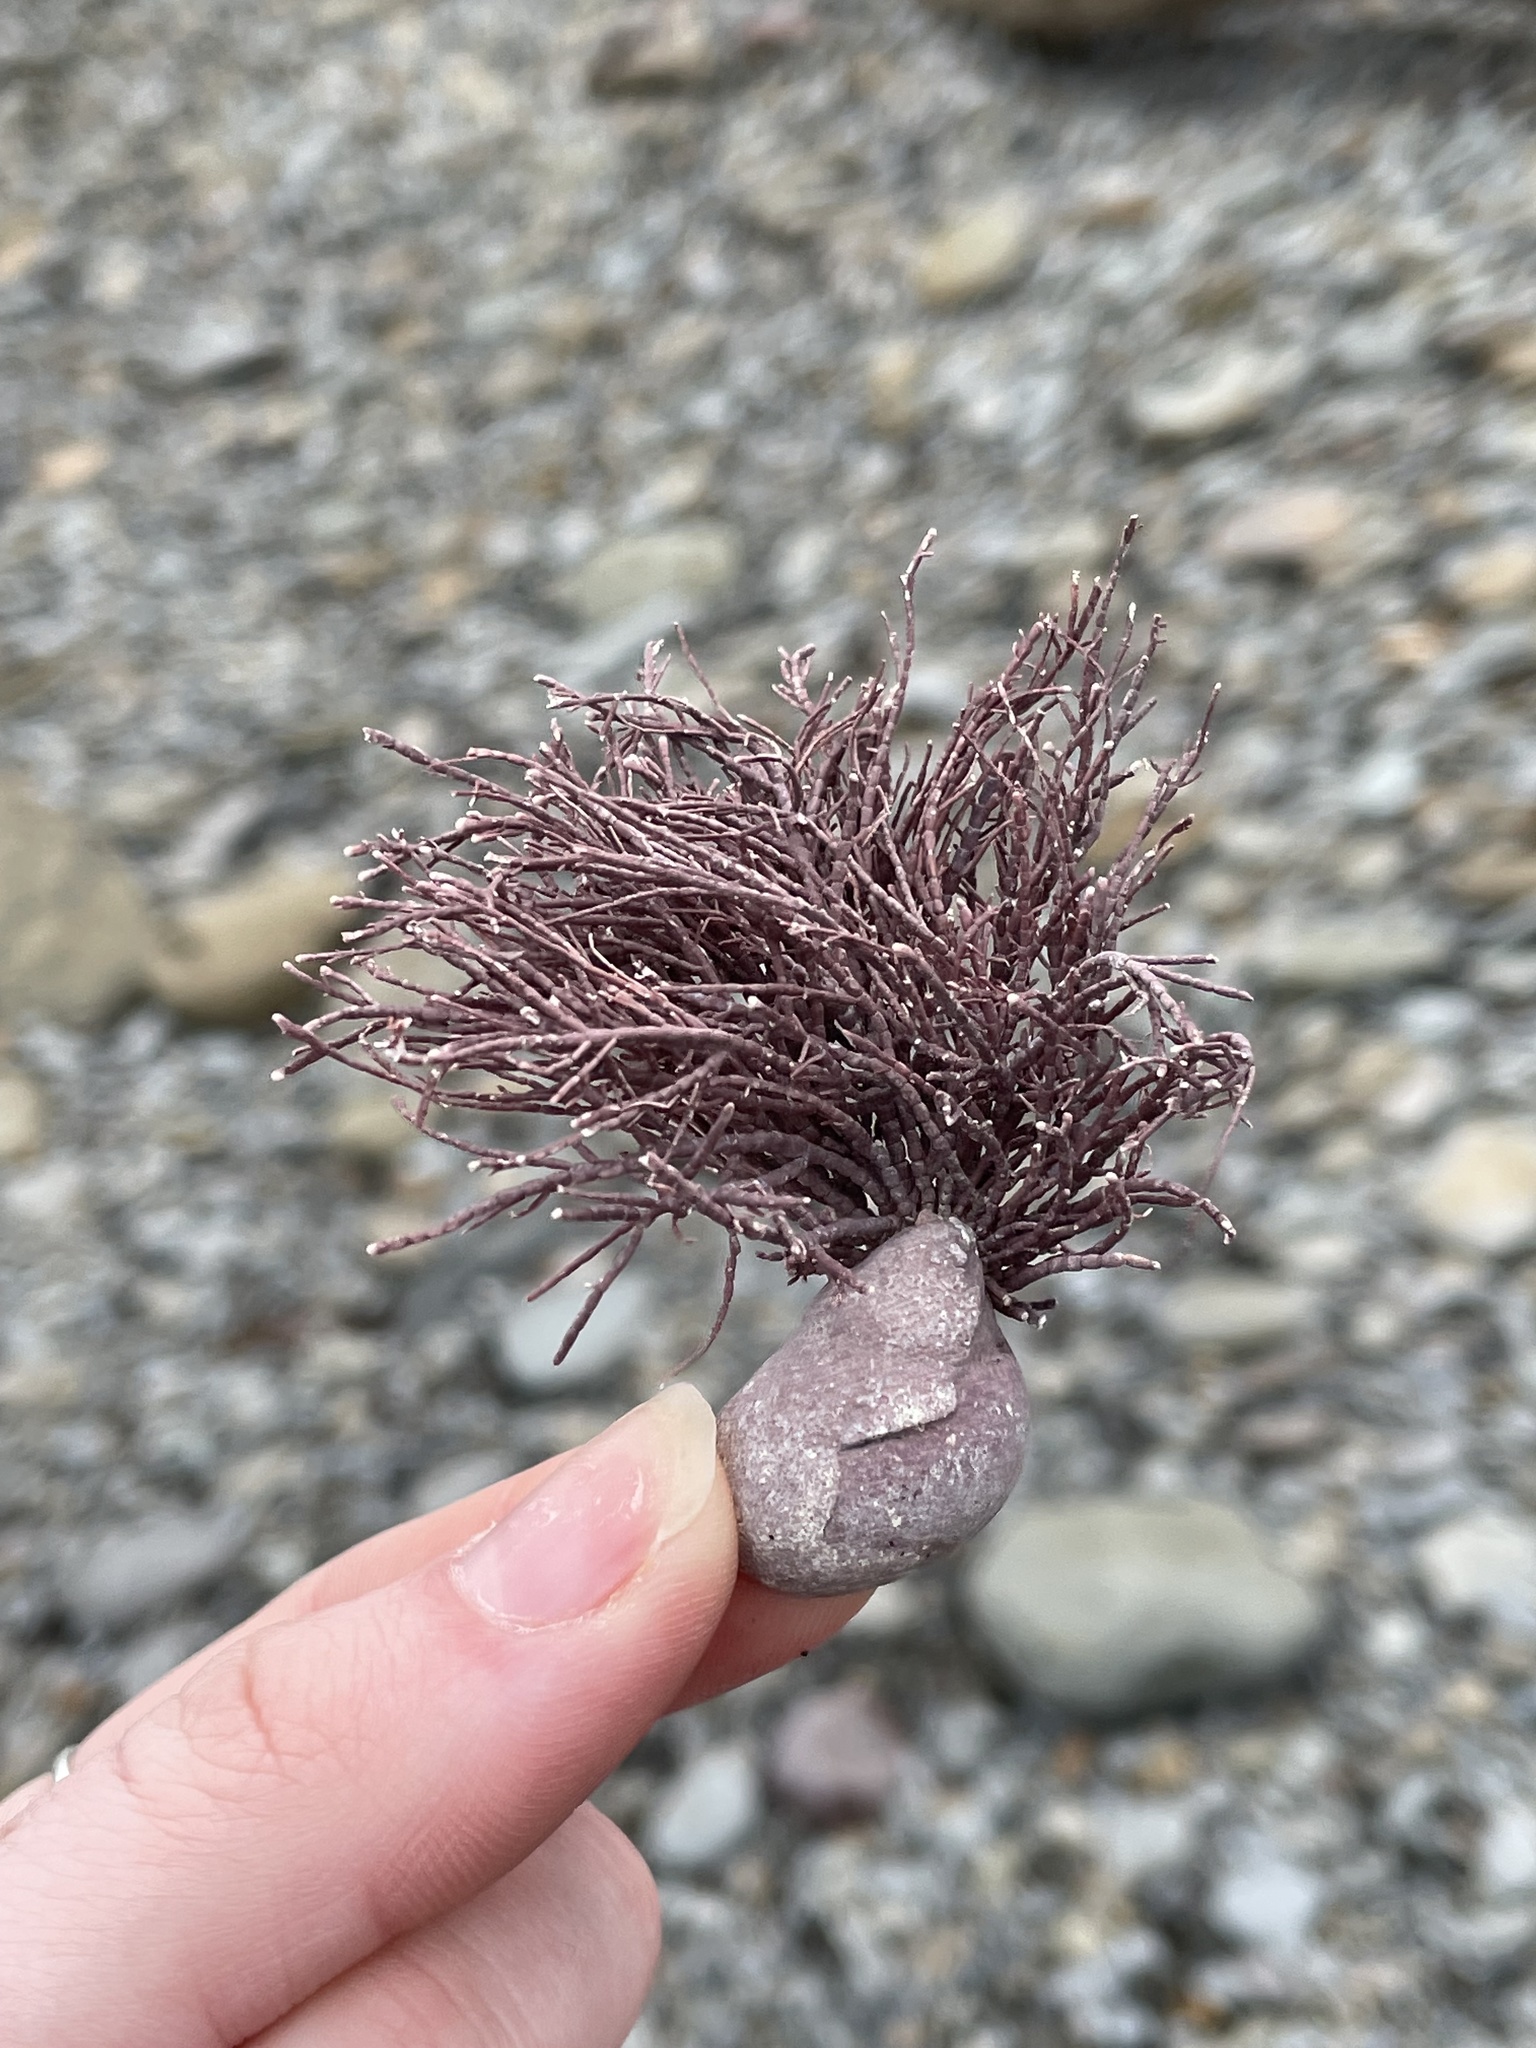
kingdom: Plantae
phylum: Rhodophyta
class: Florideophyceae
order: Corallinales
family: Corallinaceae
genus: Corallina
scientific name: Corallina officinalis
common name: Coral weed
